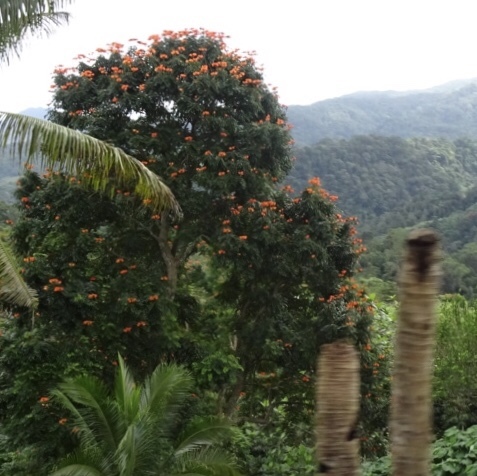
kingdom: Plantae
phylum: Tracheophyta
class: Magnoliopsida
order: Lamiales
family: Bignoniaceae
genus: Spathodea
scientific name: Spathodea campanulata
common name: African tuliptree
